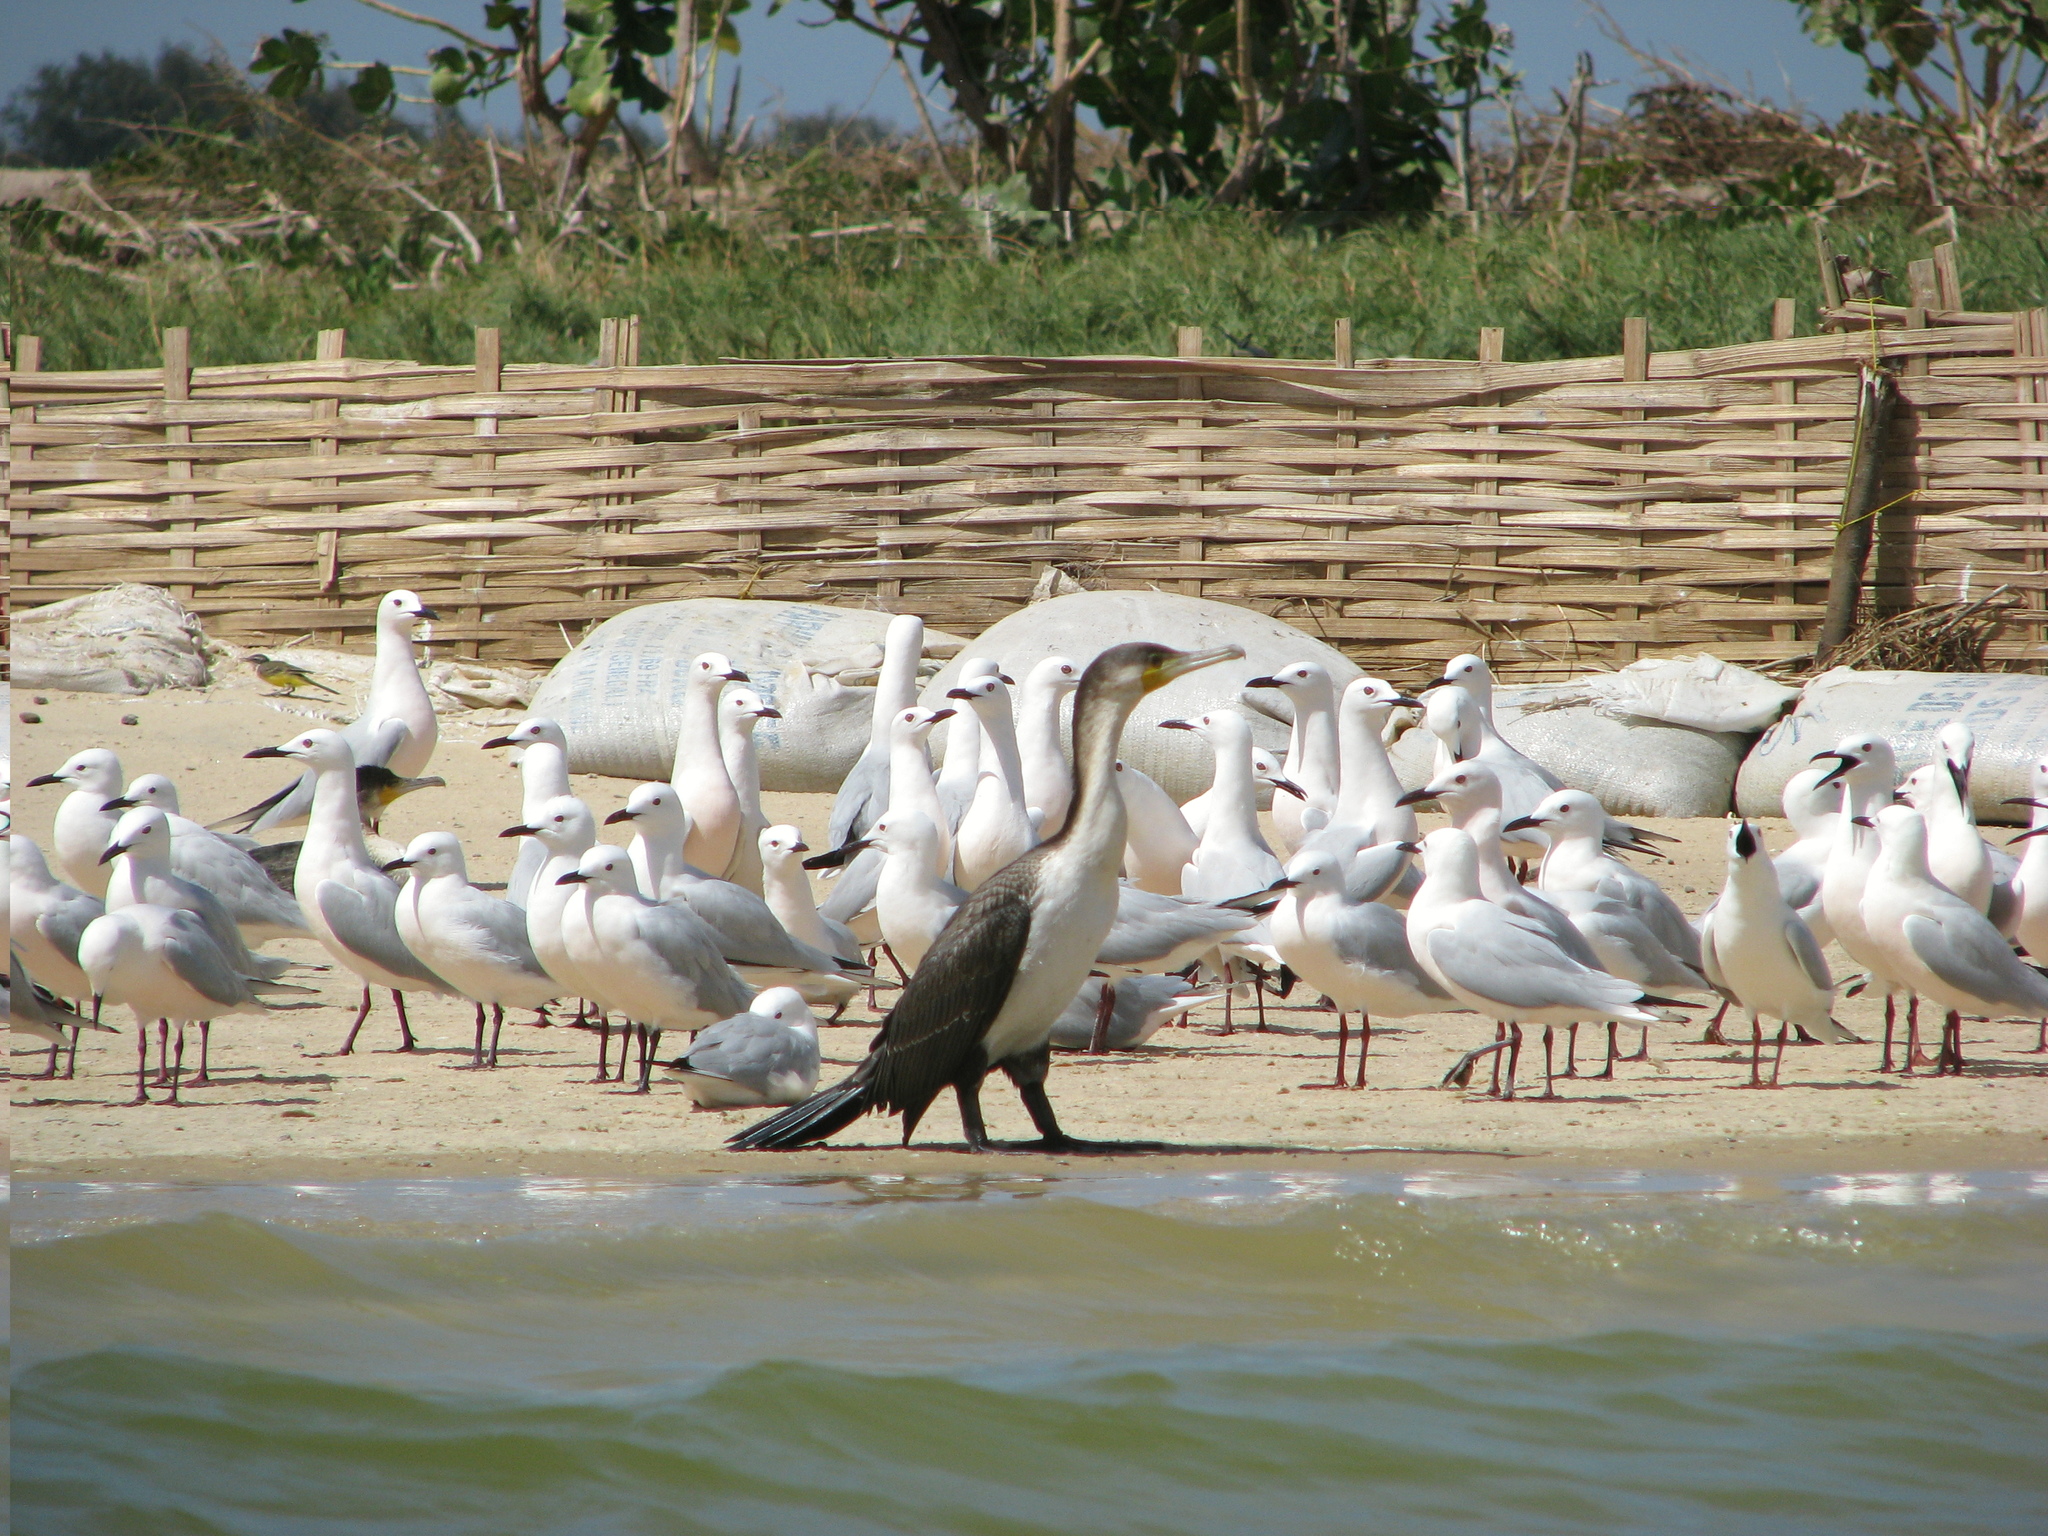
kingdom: Animalia
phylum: Chordata
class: Aves
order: Charadriiformes
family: Laridae
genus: Chroicocephalus
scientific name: Chroicocephalus genei
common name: Slender-billed gull
